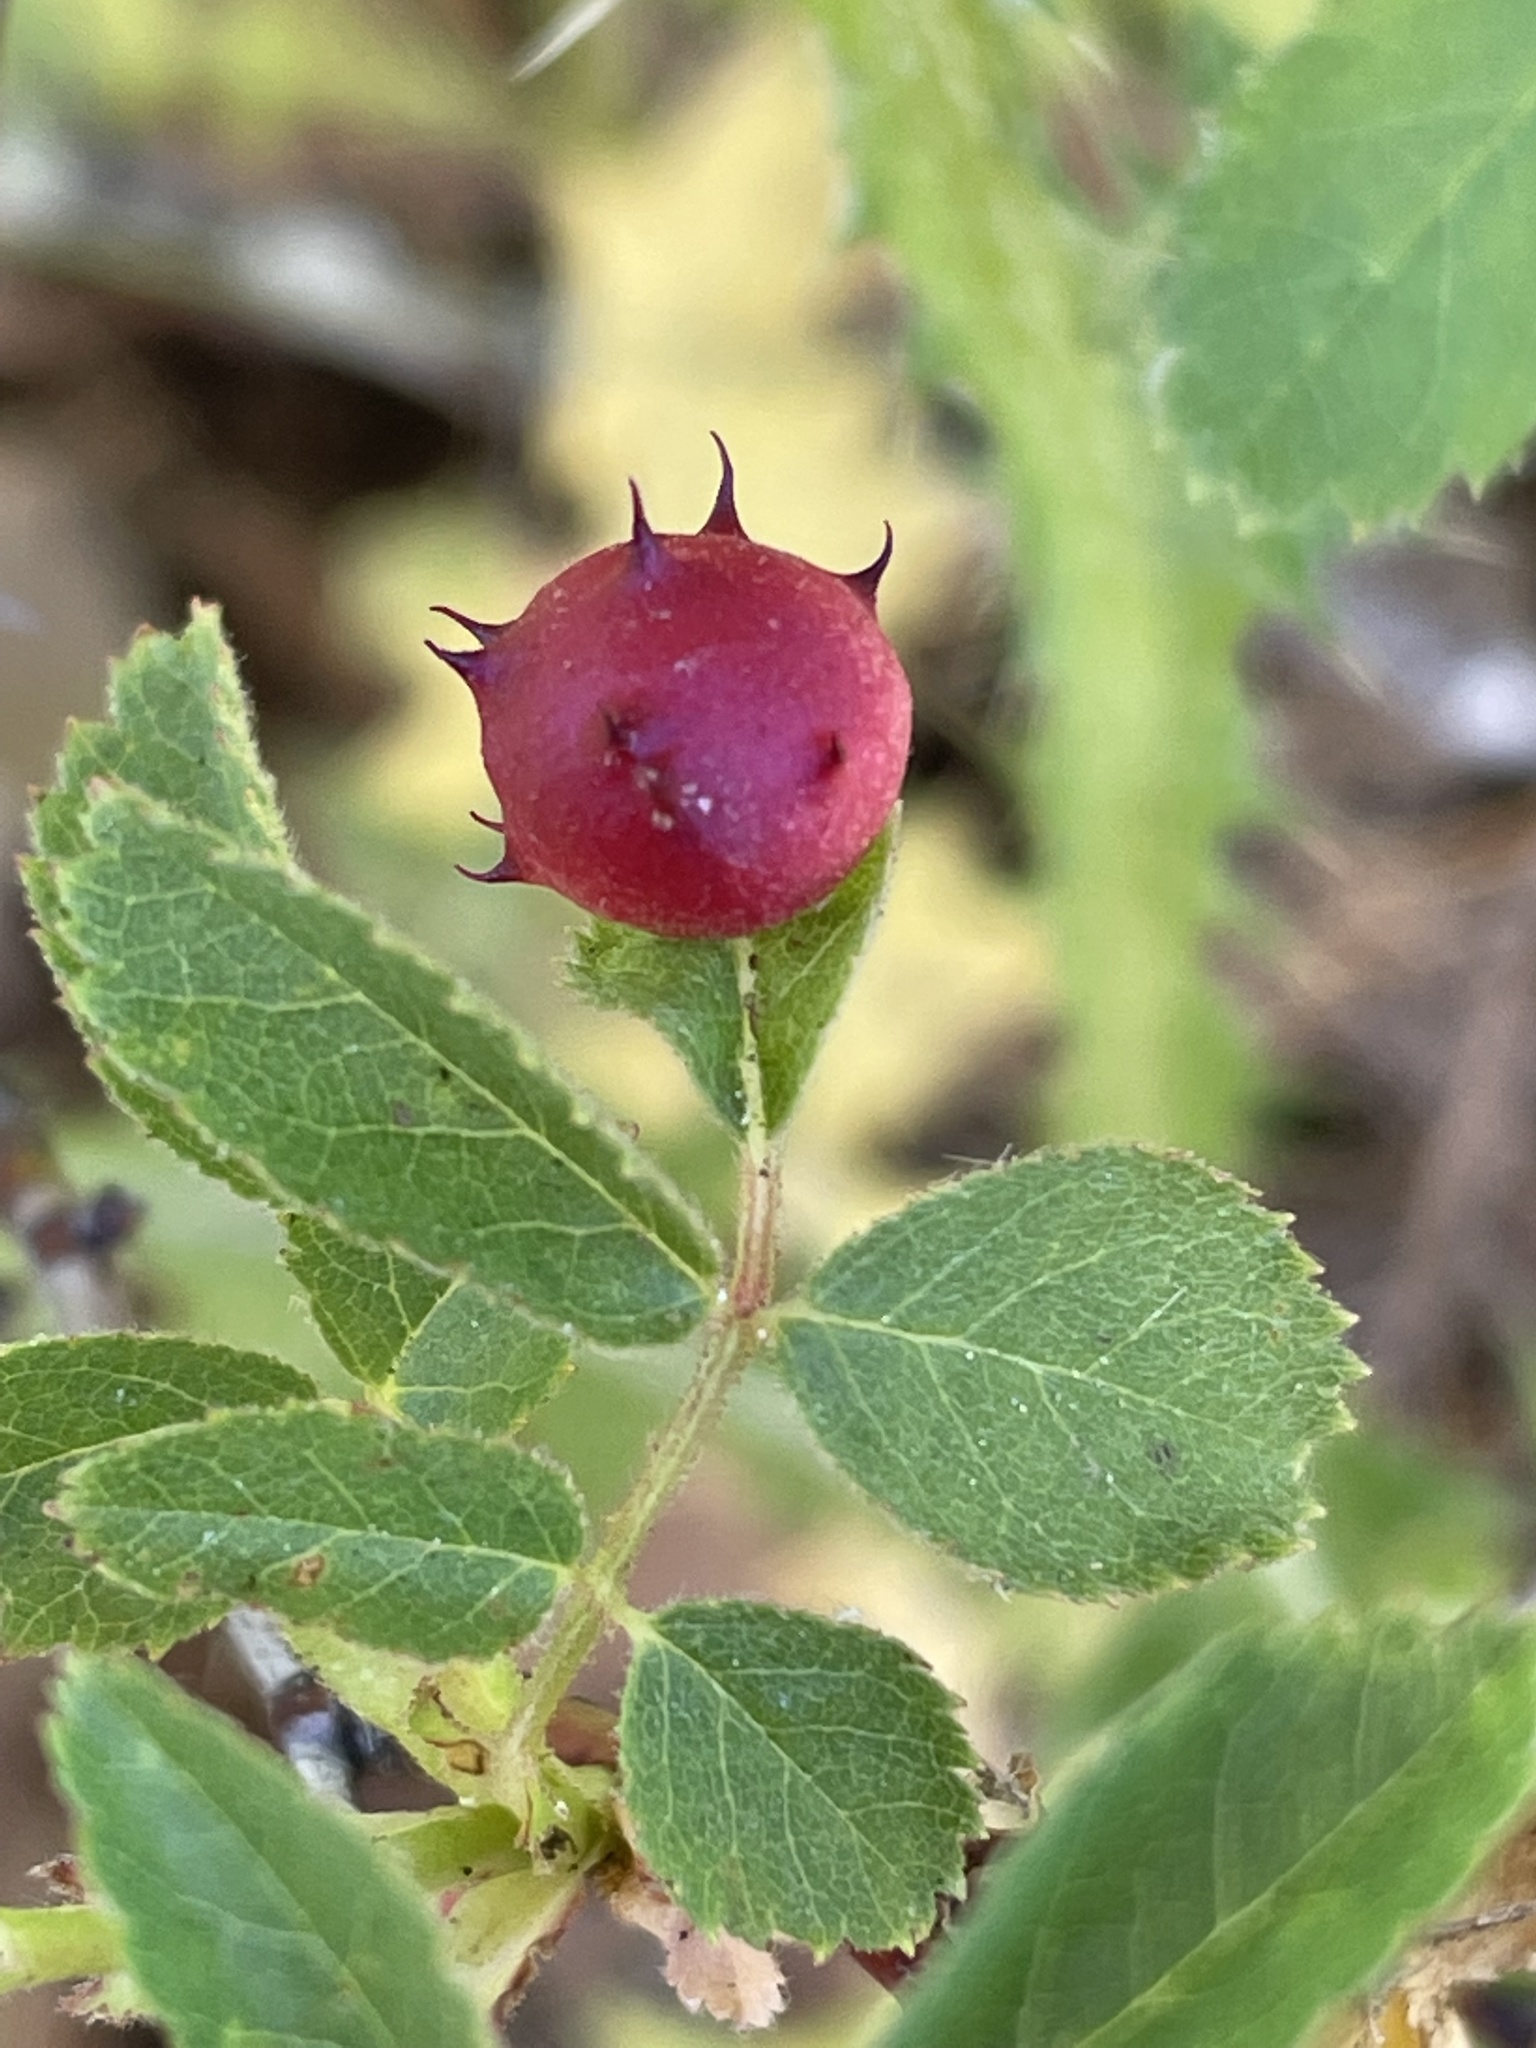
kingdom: Animalia
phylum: Arthropoda
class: Insecta
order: Hymenoptera
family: Cynipidae
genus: Diplolepis
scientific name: Diplolepis polita
